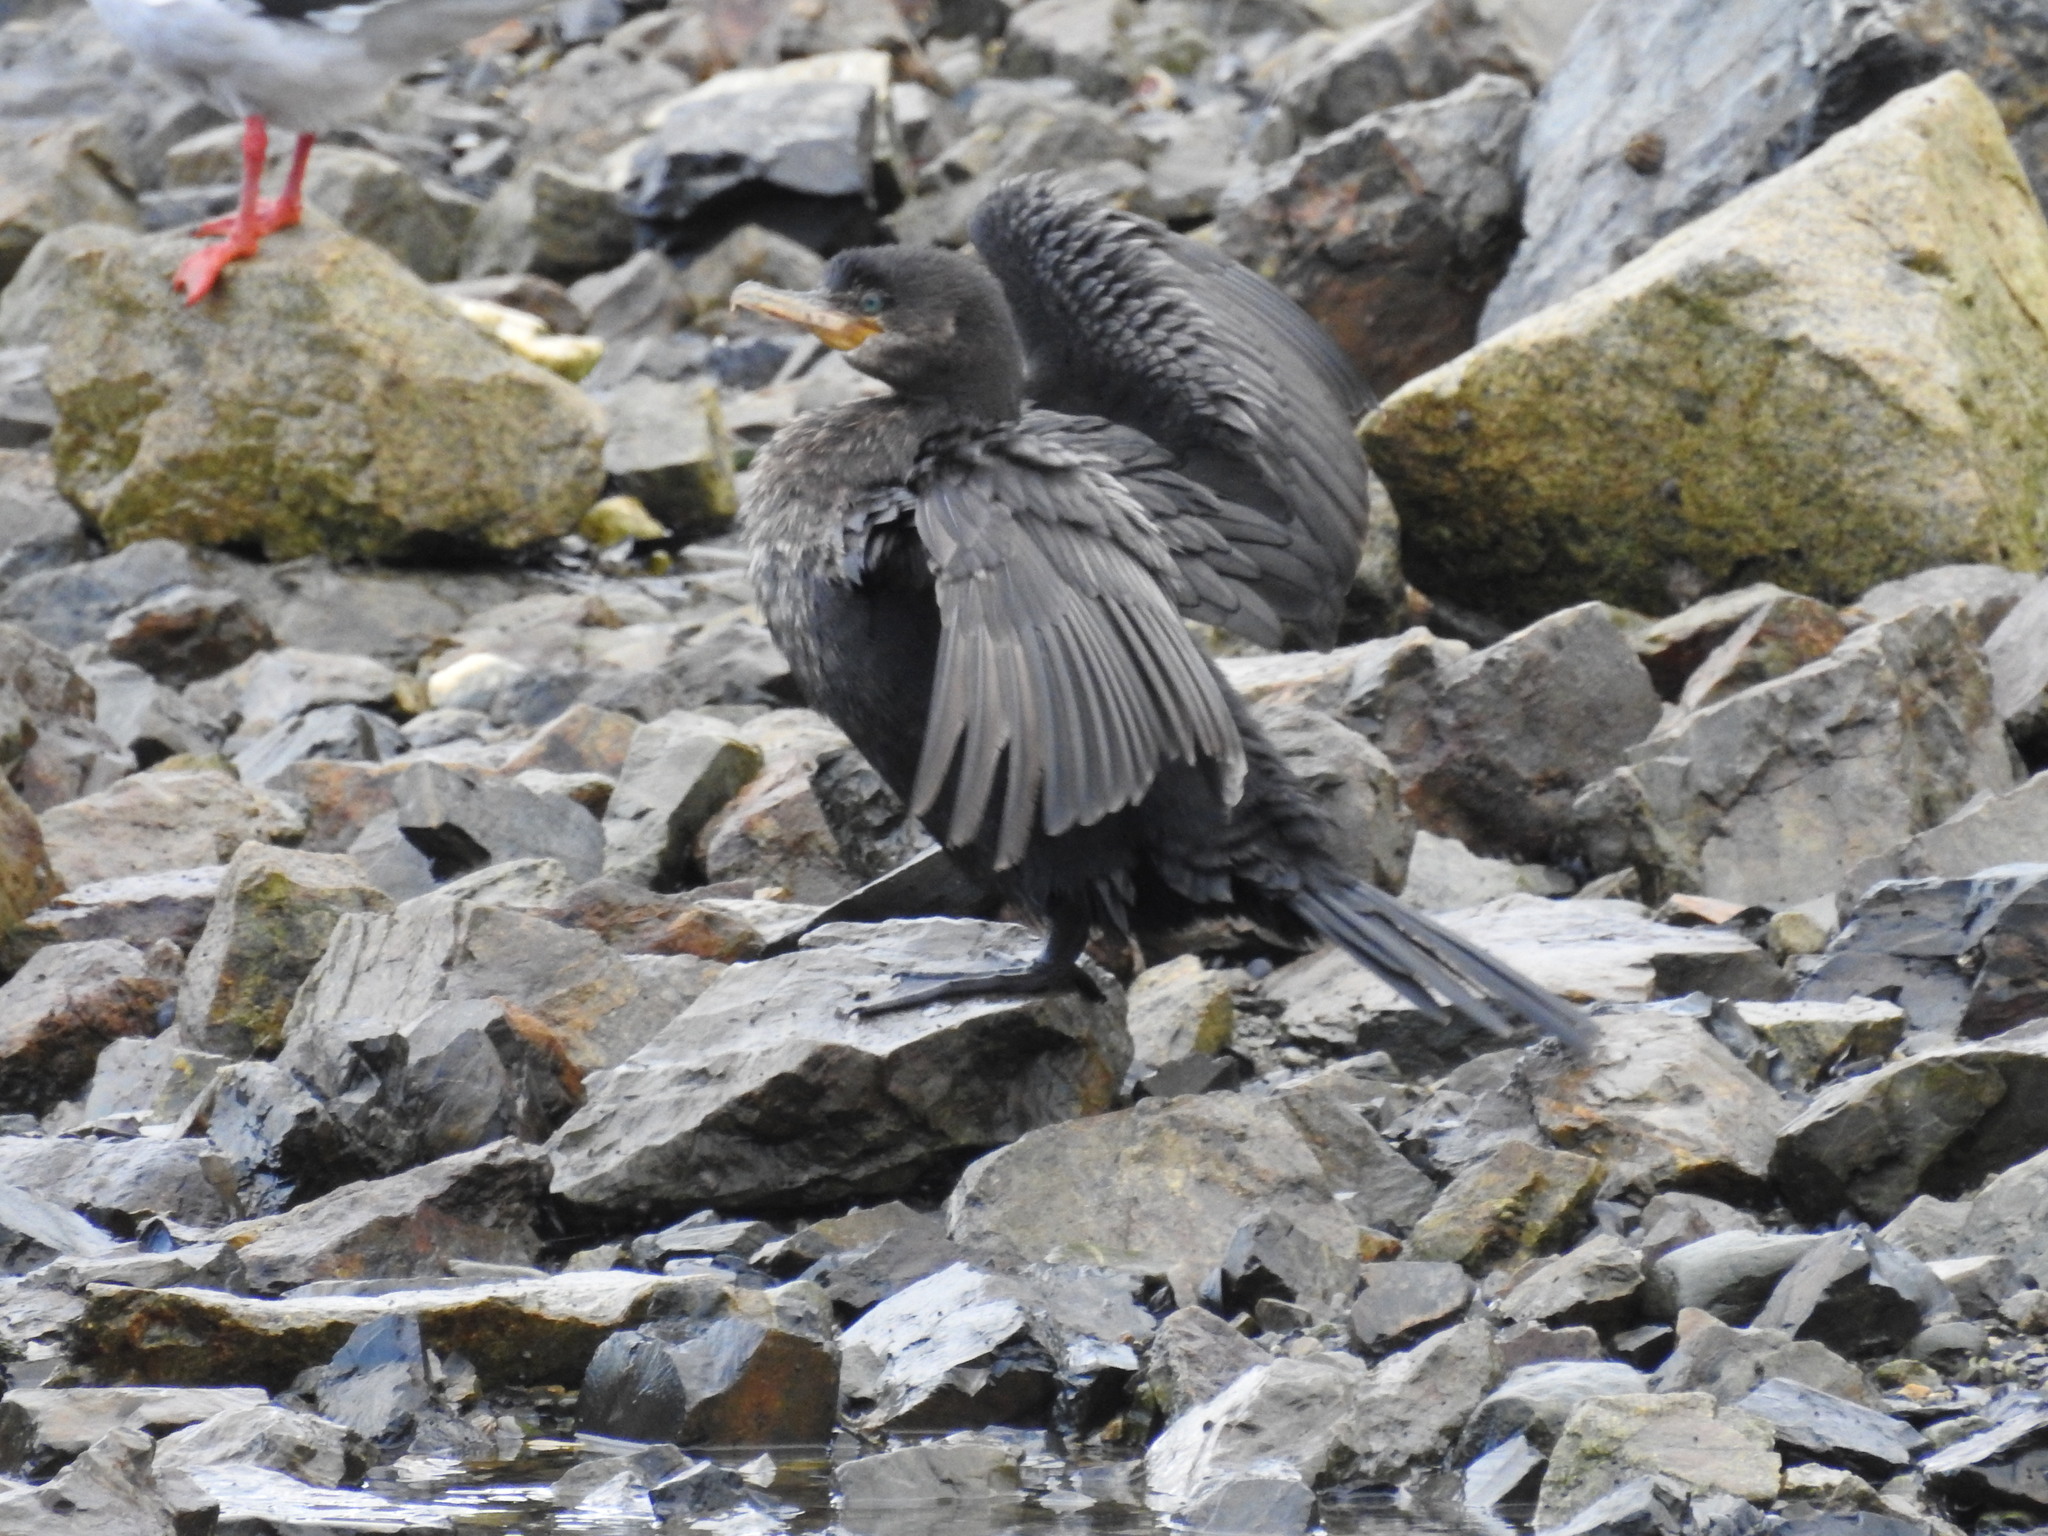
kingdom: Animalia
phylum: Chordata
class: Aves
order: Suliformes
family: Phalacrocoracidae
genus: Phalacrocorax
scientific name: Phalacrocorax brasilianus
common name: Neotropic cormorant
